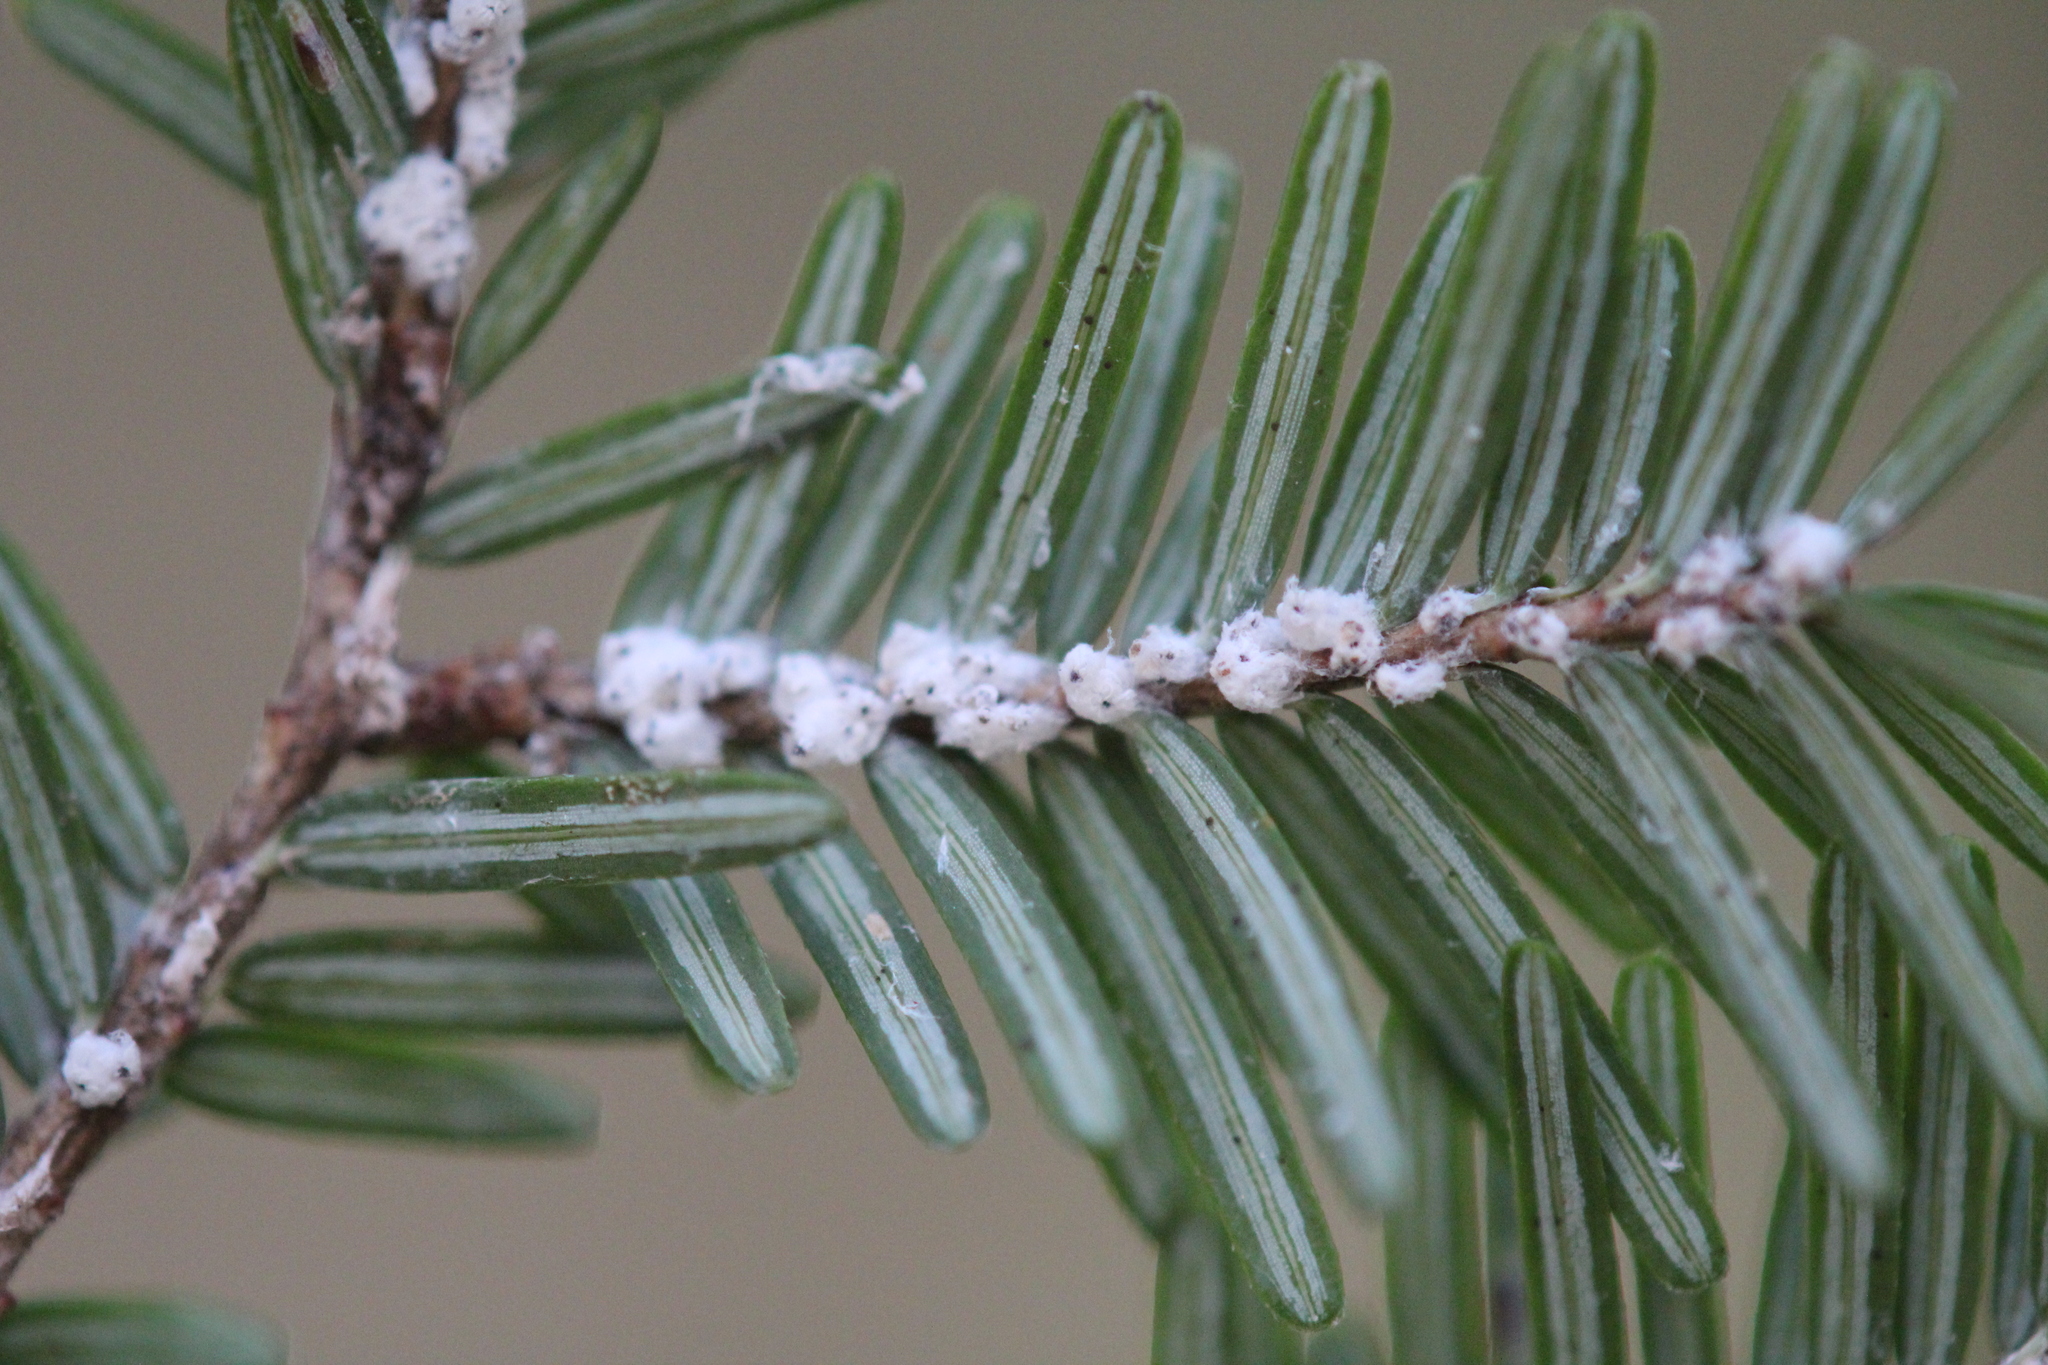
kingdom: Plantae
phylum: Tracheophyta
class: Pinopsida
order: Pinales
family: Pinaceae
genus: Tsuga
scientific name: Tsuga canadensis
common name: Eastern hemlock
